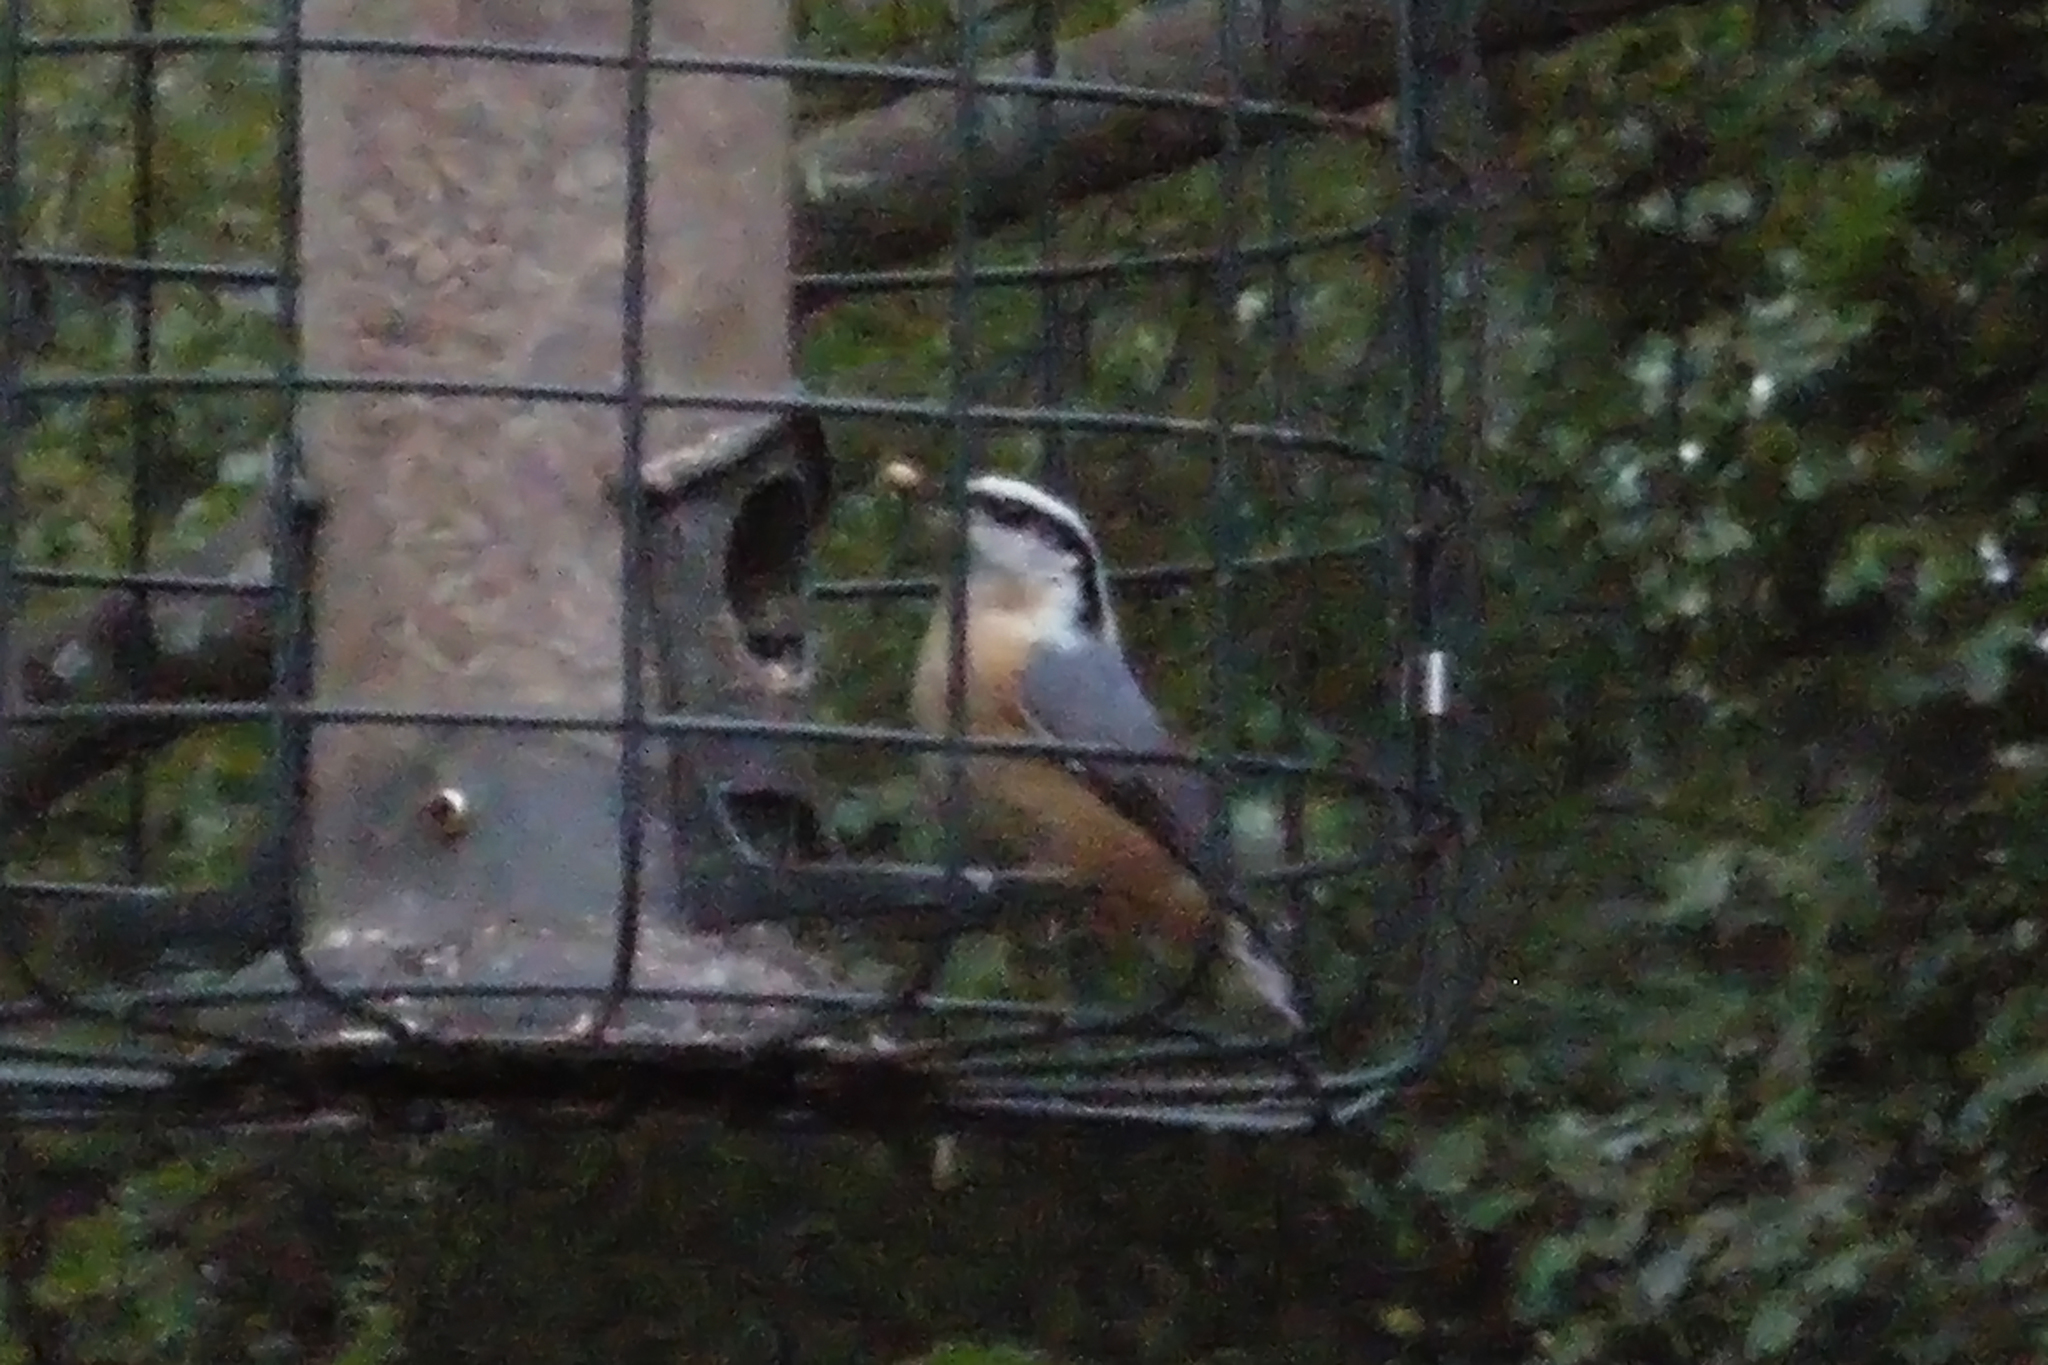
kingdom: Animalia
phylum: Chordata
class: Aves
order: Passeriformes
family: Sittidae
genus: Sitta
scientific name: Sitta canadensis
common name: Red-breasted nuthatch
